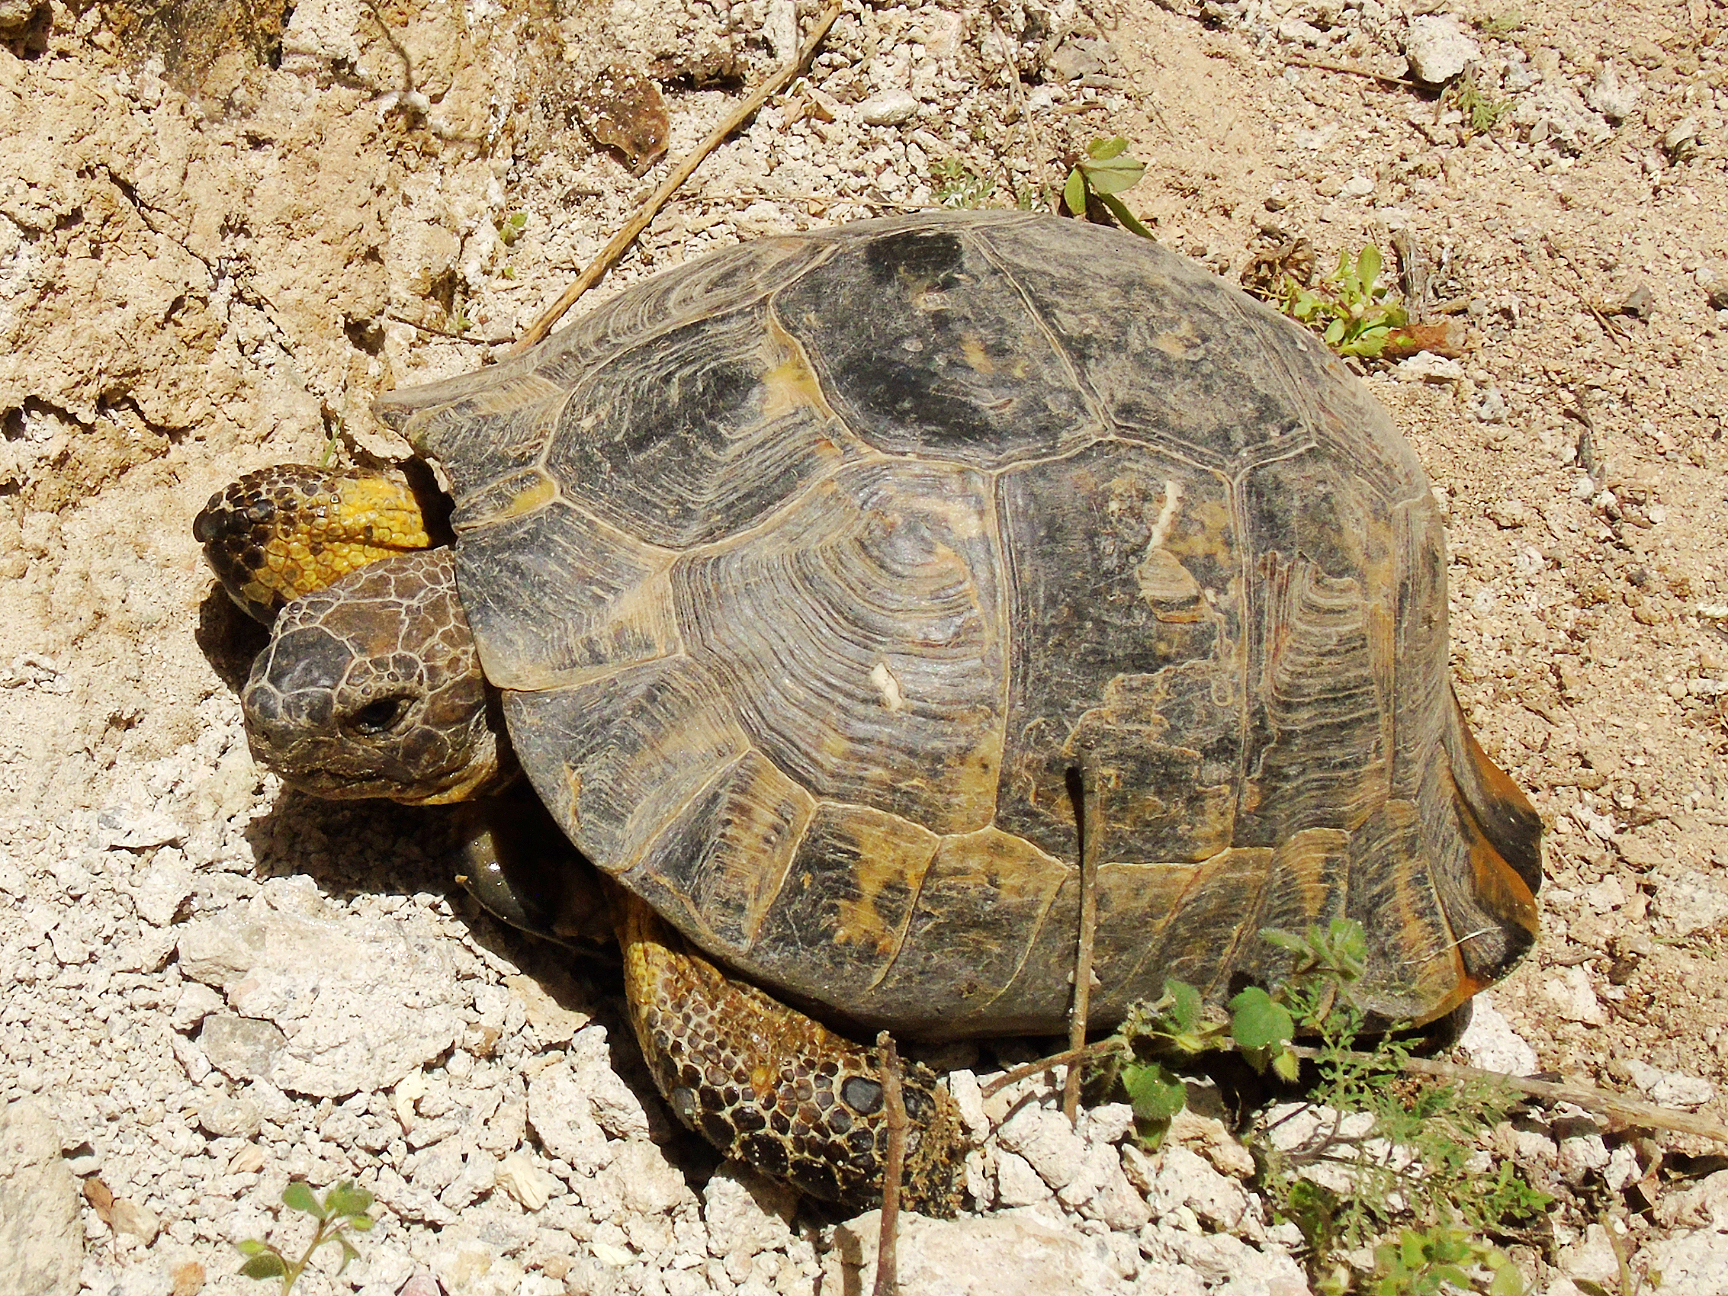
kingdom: Animalia
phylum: Chordata
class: Testudines
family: Testudinidae
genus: Testudo
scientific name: Testudo graeca
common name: Common tortoise
